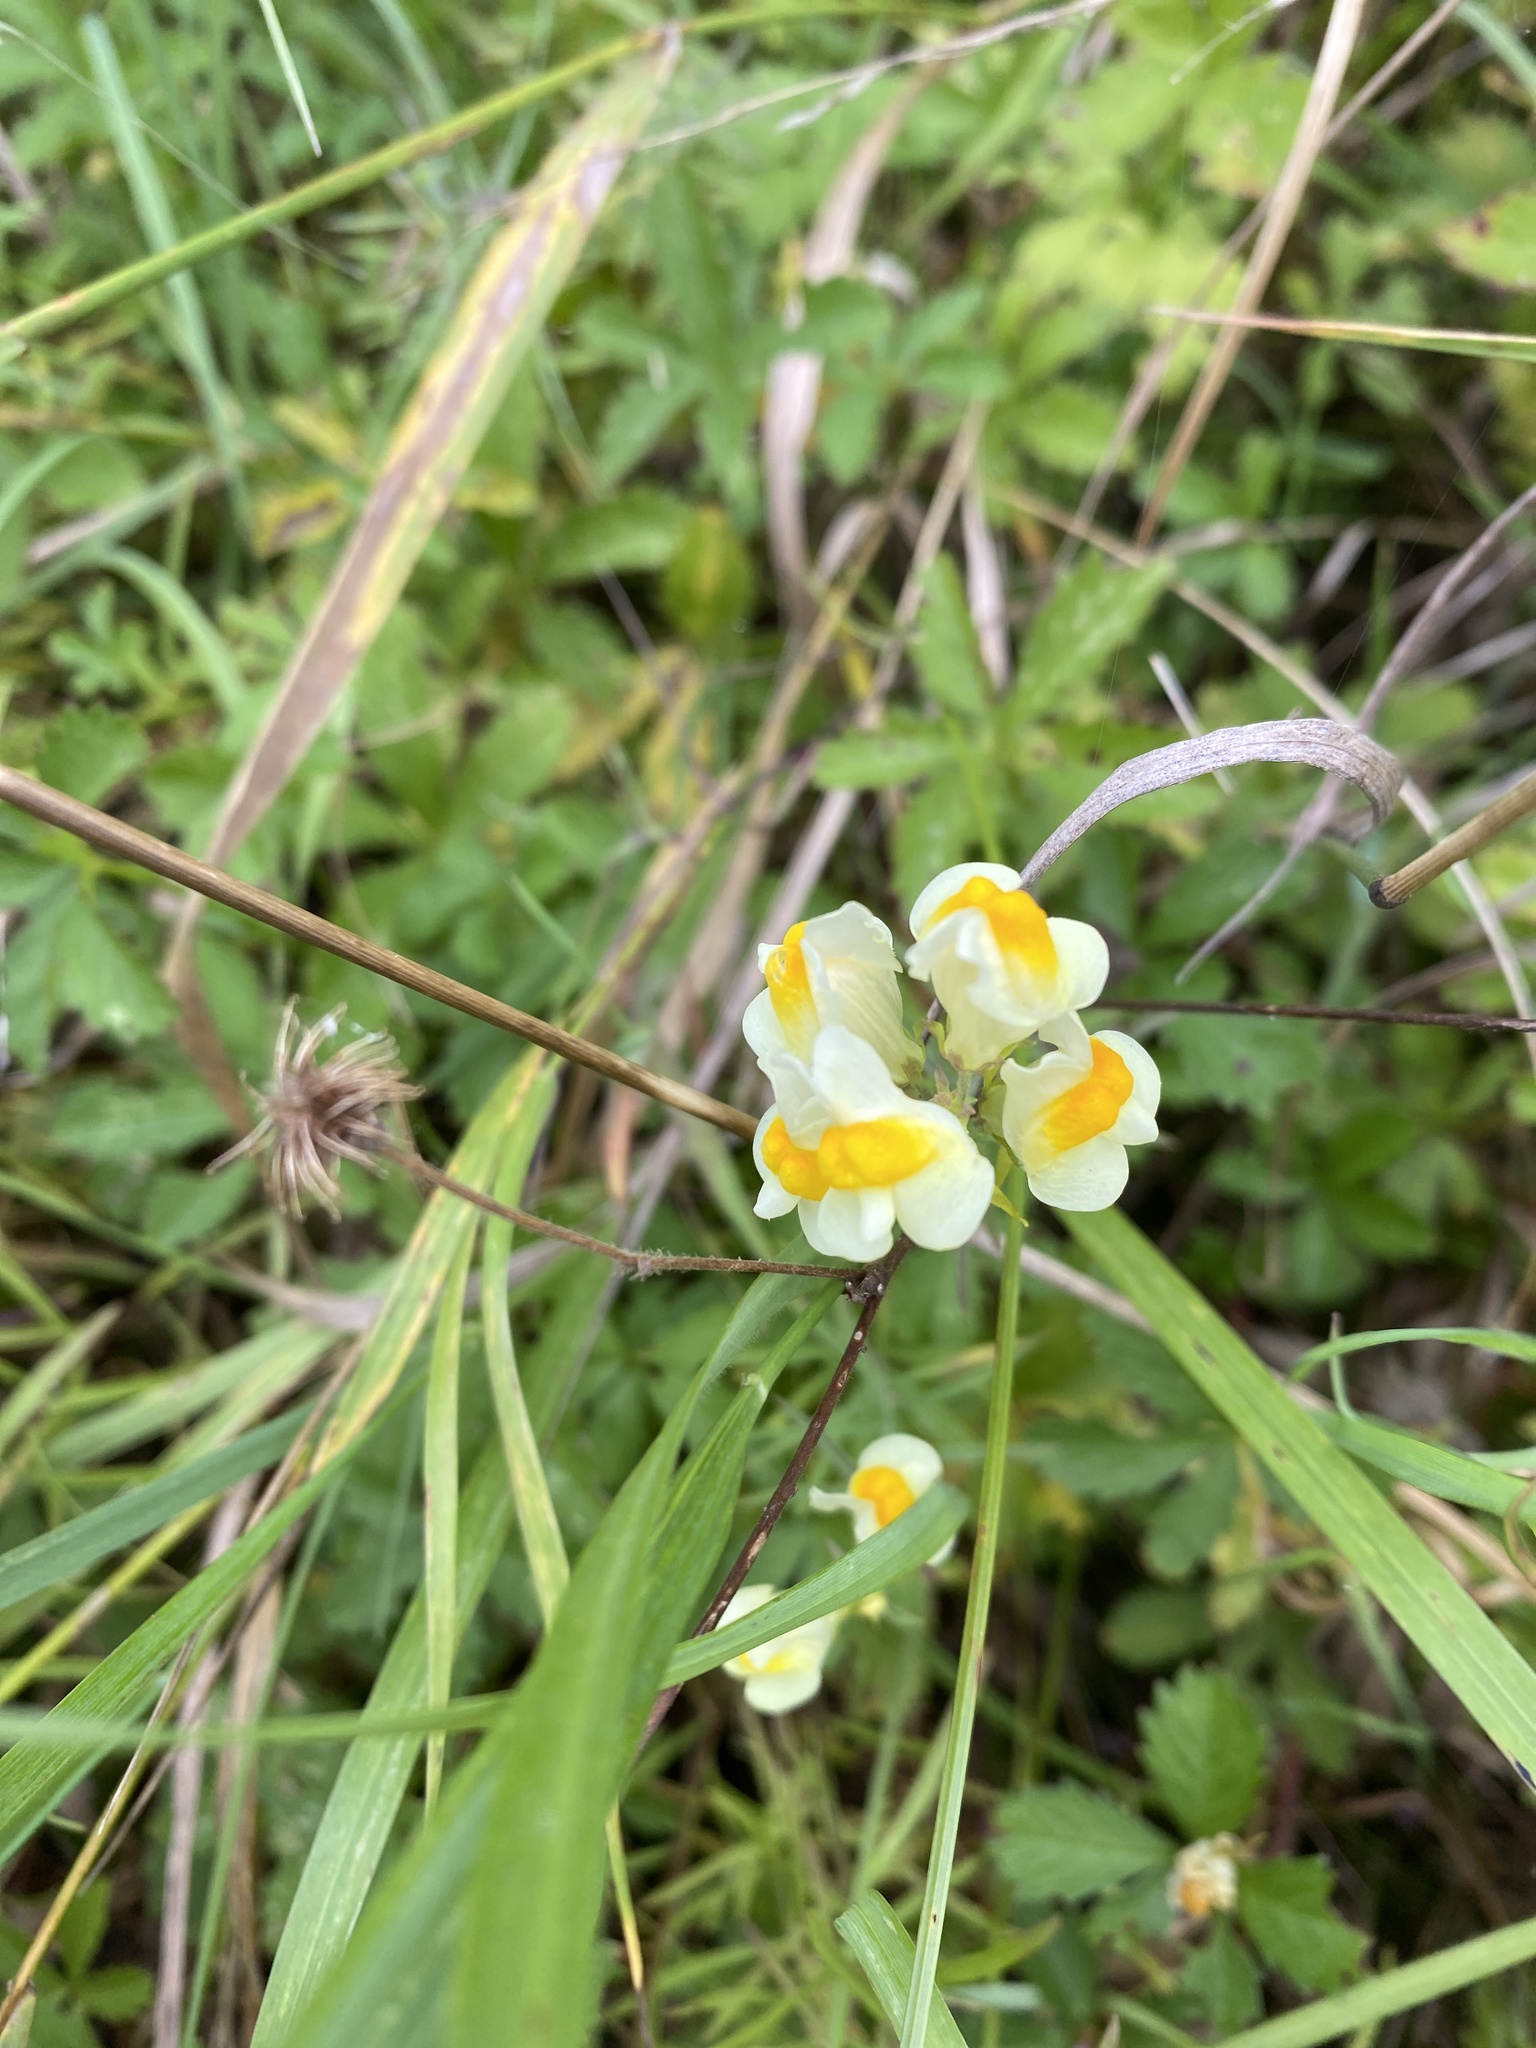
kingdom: Plantae
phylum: Tracheophyta
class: Magnoliopsida
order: Lamiales
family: Plantaginaceae
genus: Linaria
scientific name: Linaria vulgaris
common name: Butter and eggs
